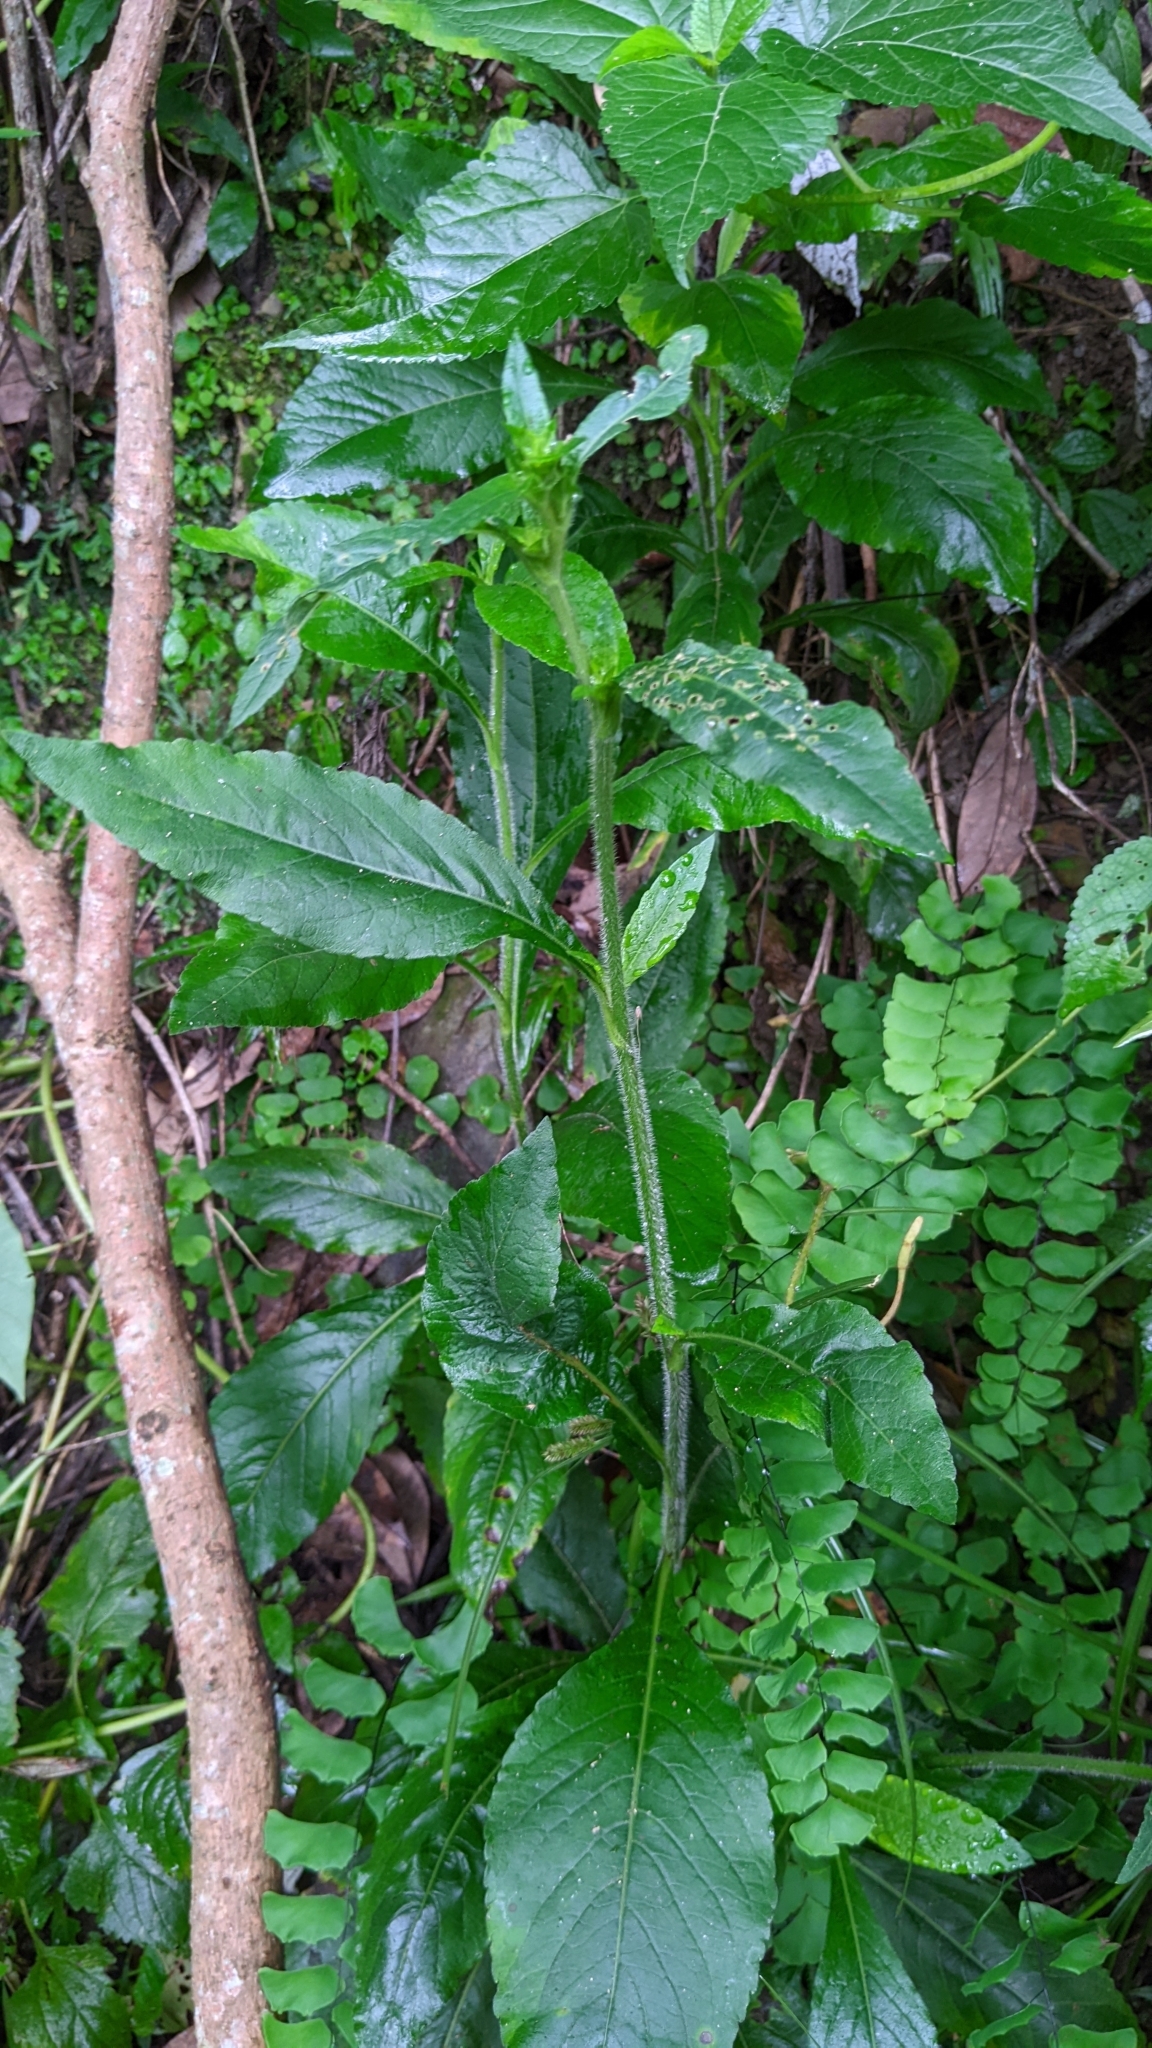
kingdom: Plantae
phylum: Tracheophyta
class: Magnoliopsida
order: Asterales
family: Asteraceae
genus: Elephantopus
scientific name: Elephantopus mollis
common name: Soft elephantsfoot
